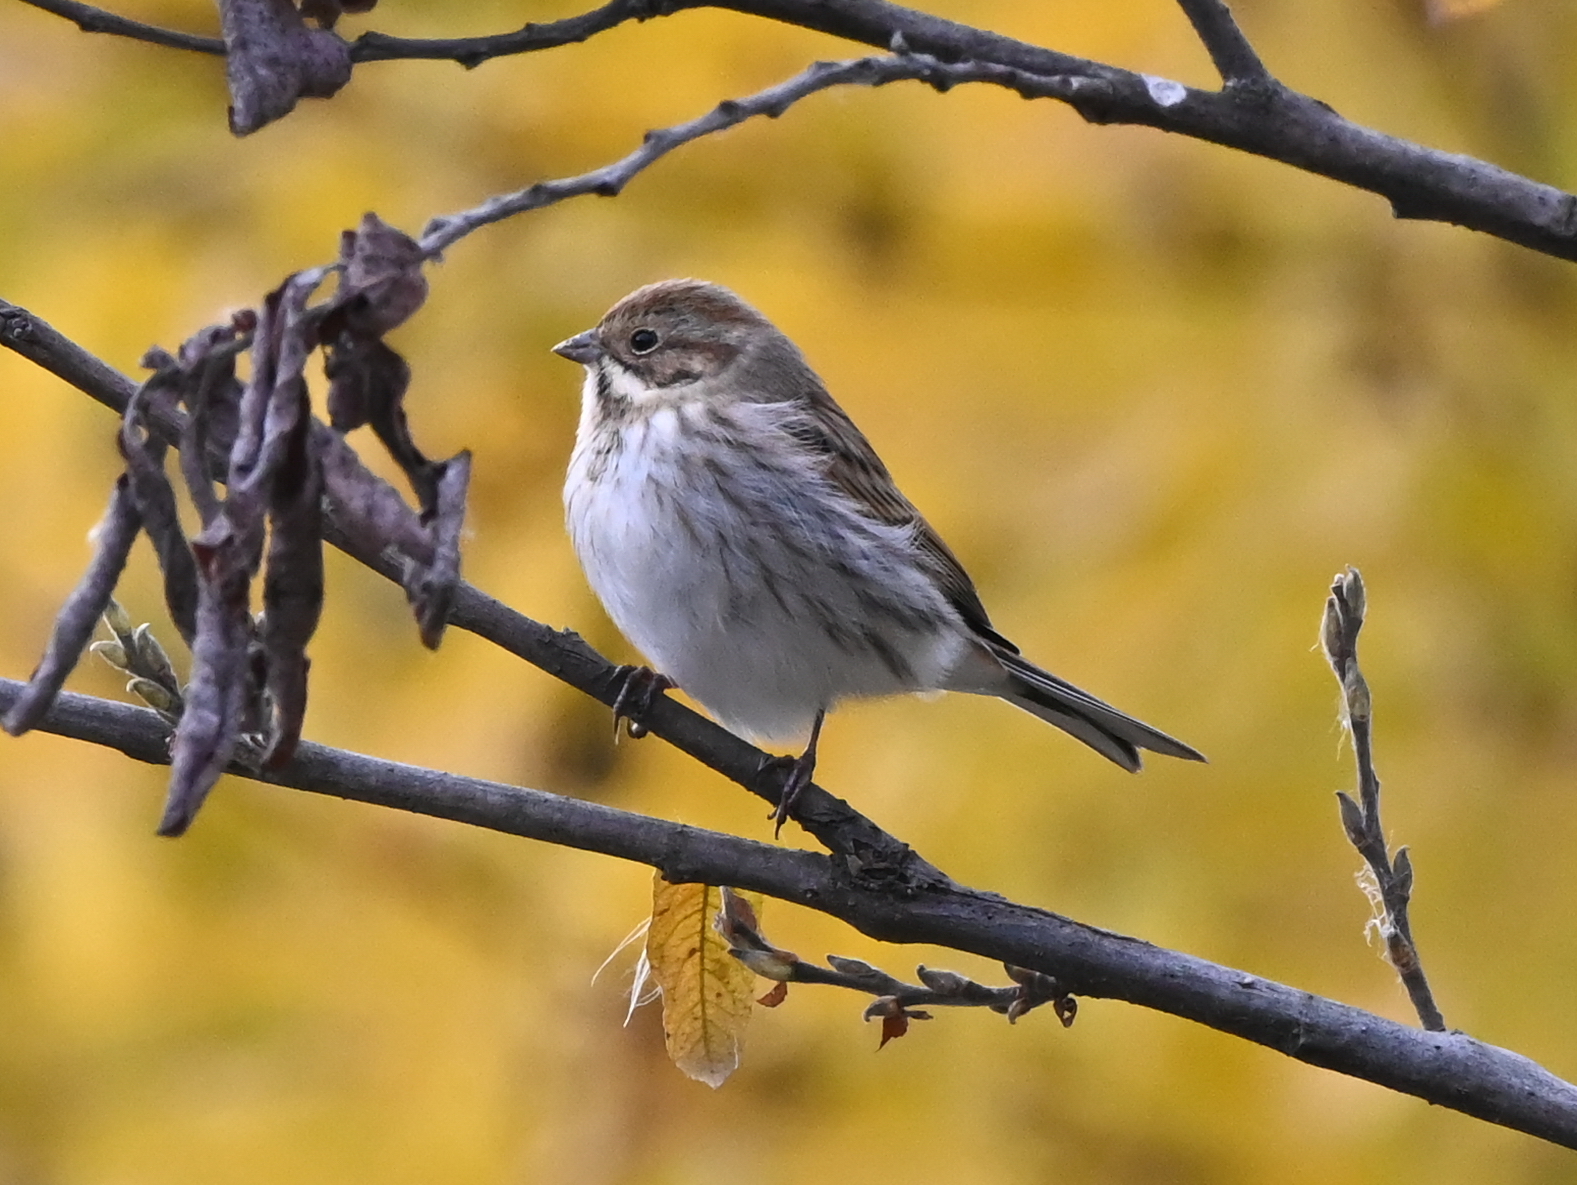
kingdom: Animalia
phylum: Chordata
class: Aves
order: Passeriformes
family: Emberizidae
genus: Emberiza
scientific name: Emberiza schoeniclus
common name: Reed bunting
